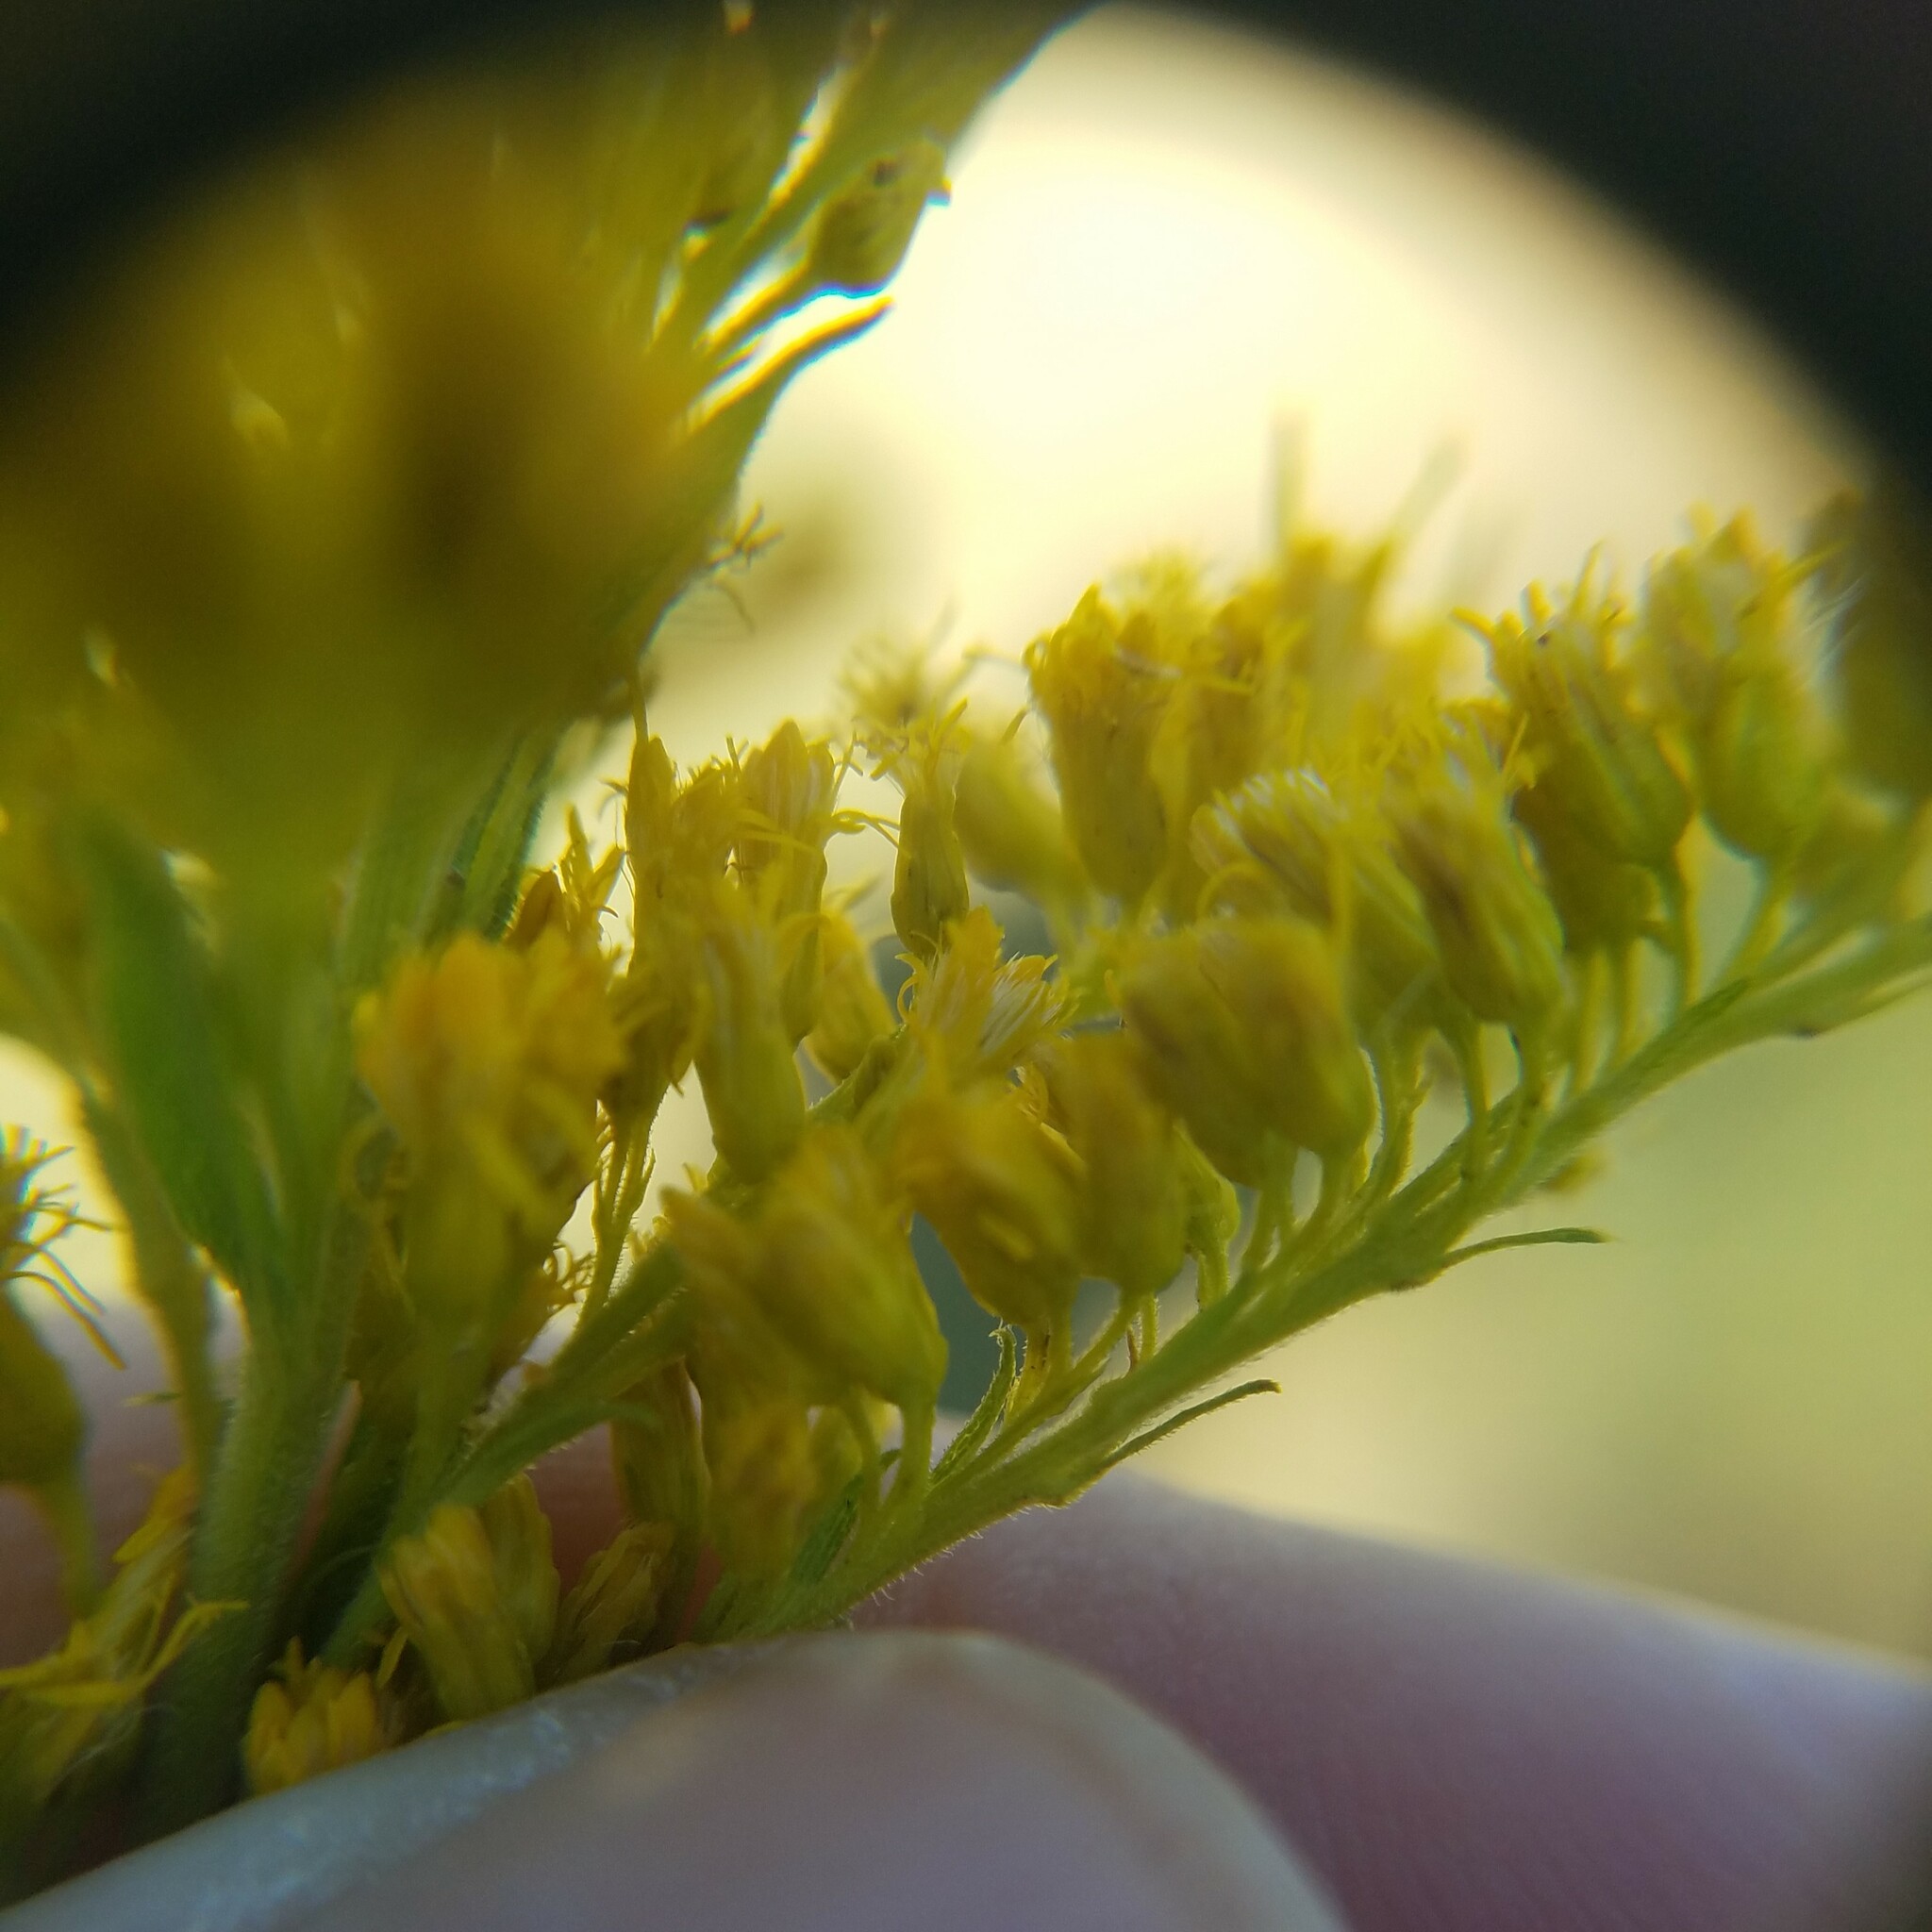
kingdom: Plantae
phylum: Tracheophyta
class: Magnoliopsida
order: Asterales
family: Asteraceae
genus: Solidago
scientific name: Solidago altissima
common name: Late goldenrod
